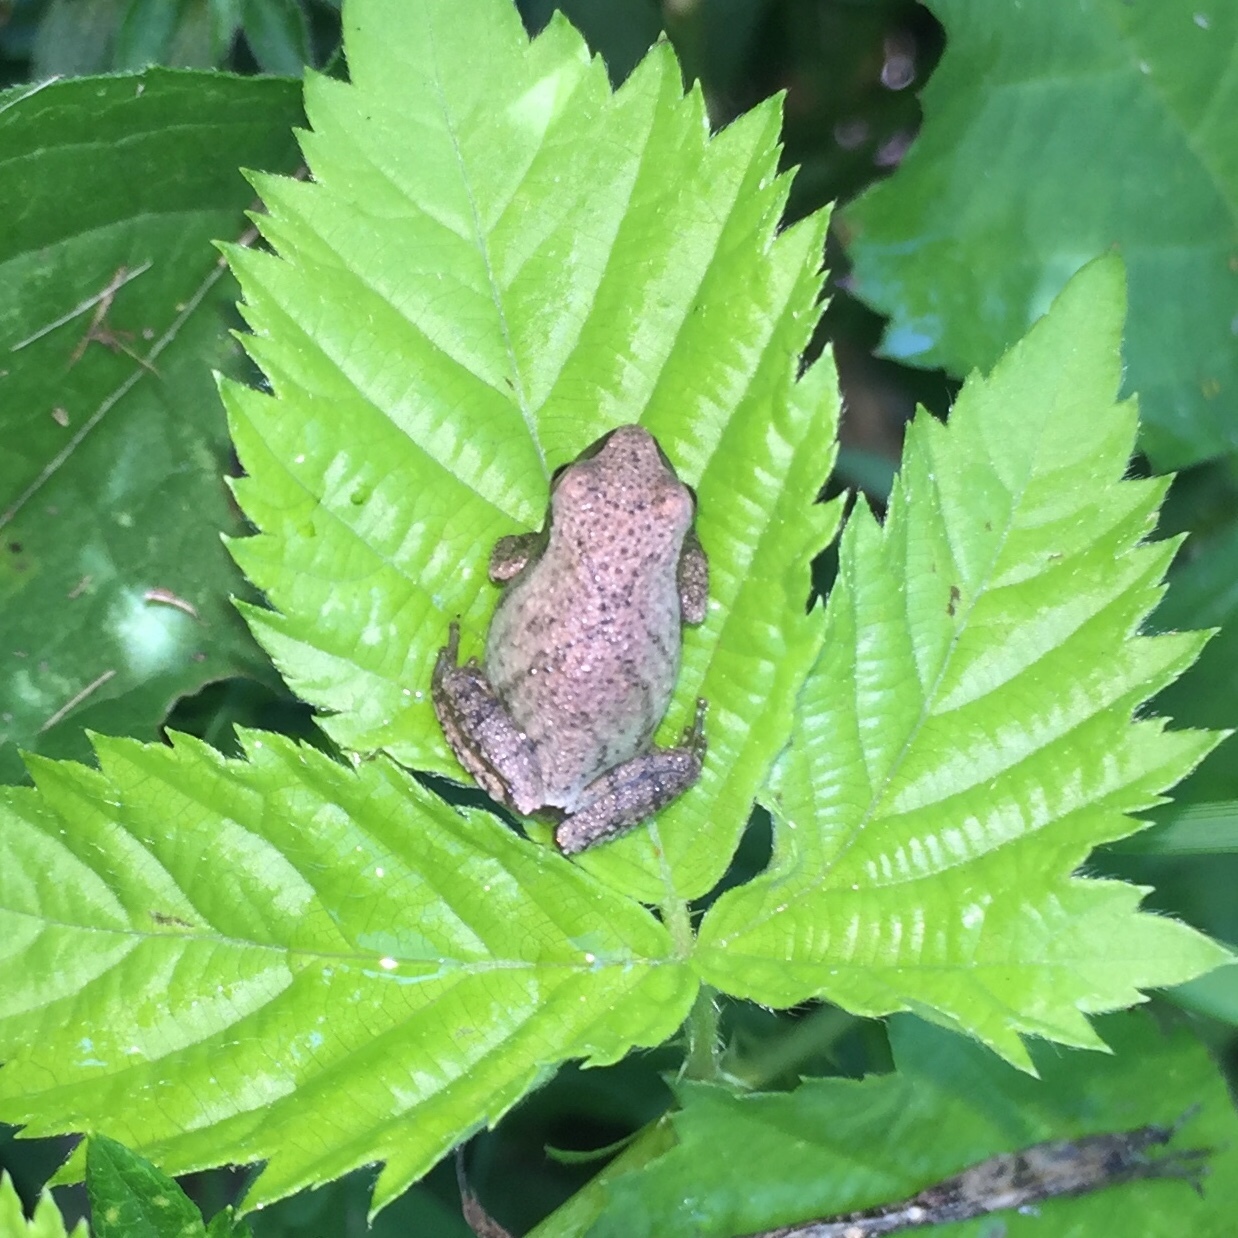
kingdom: Animalia
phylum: Chordata
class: Amphibia
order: Anura
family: Hylidae
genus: Pseudacris
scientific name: Pseudacris crucifer
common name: Spring peeper
